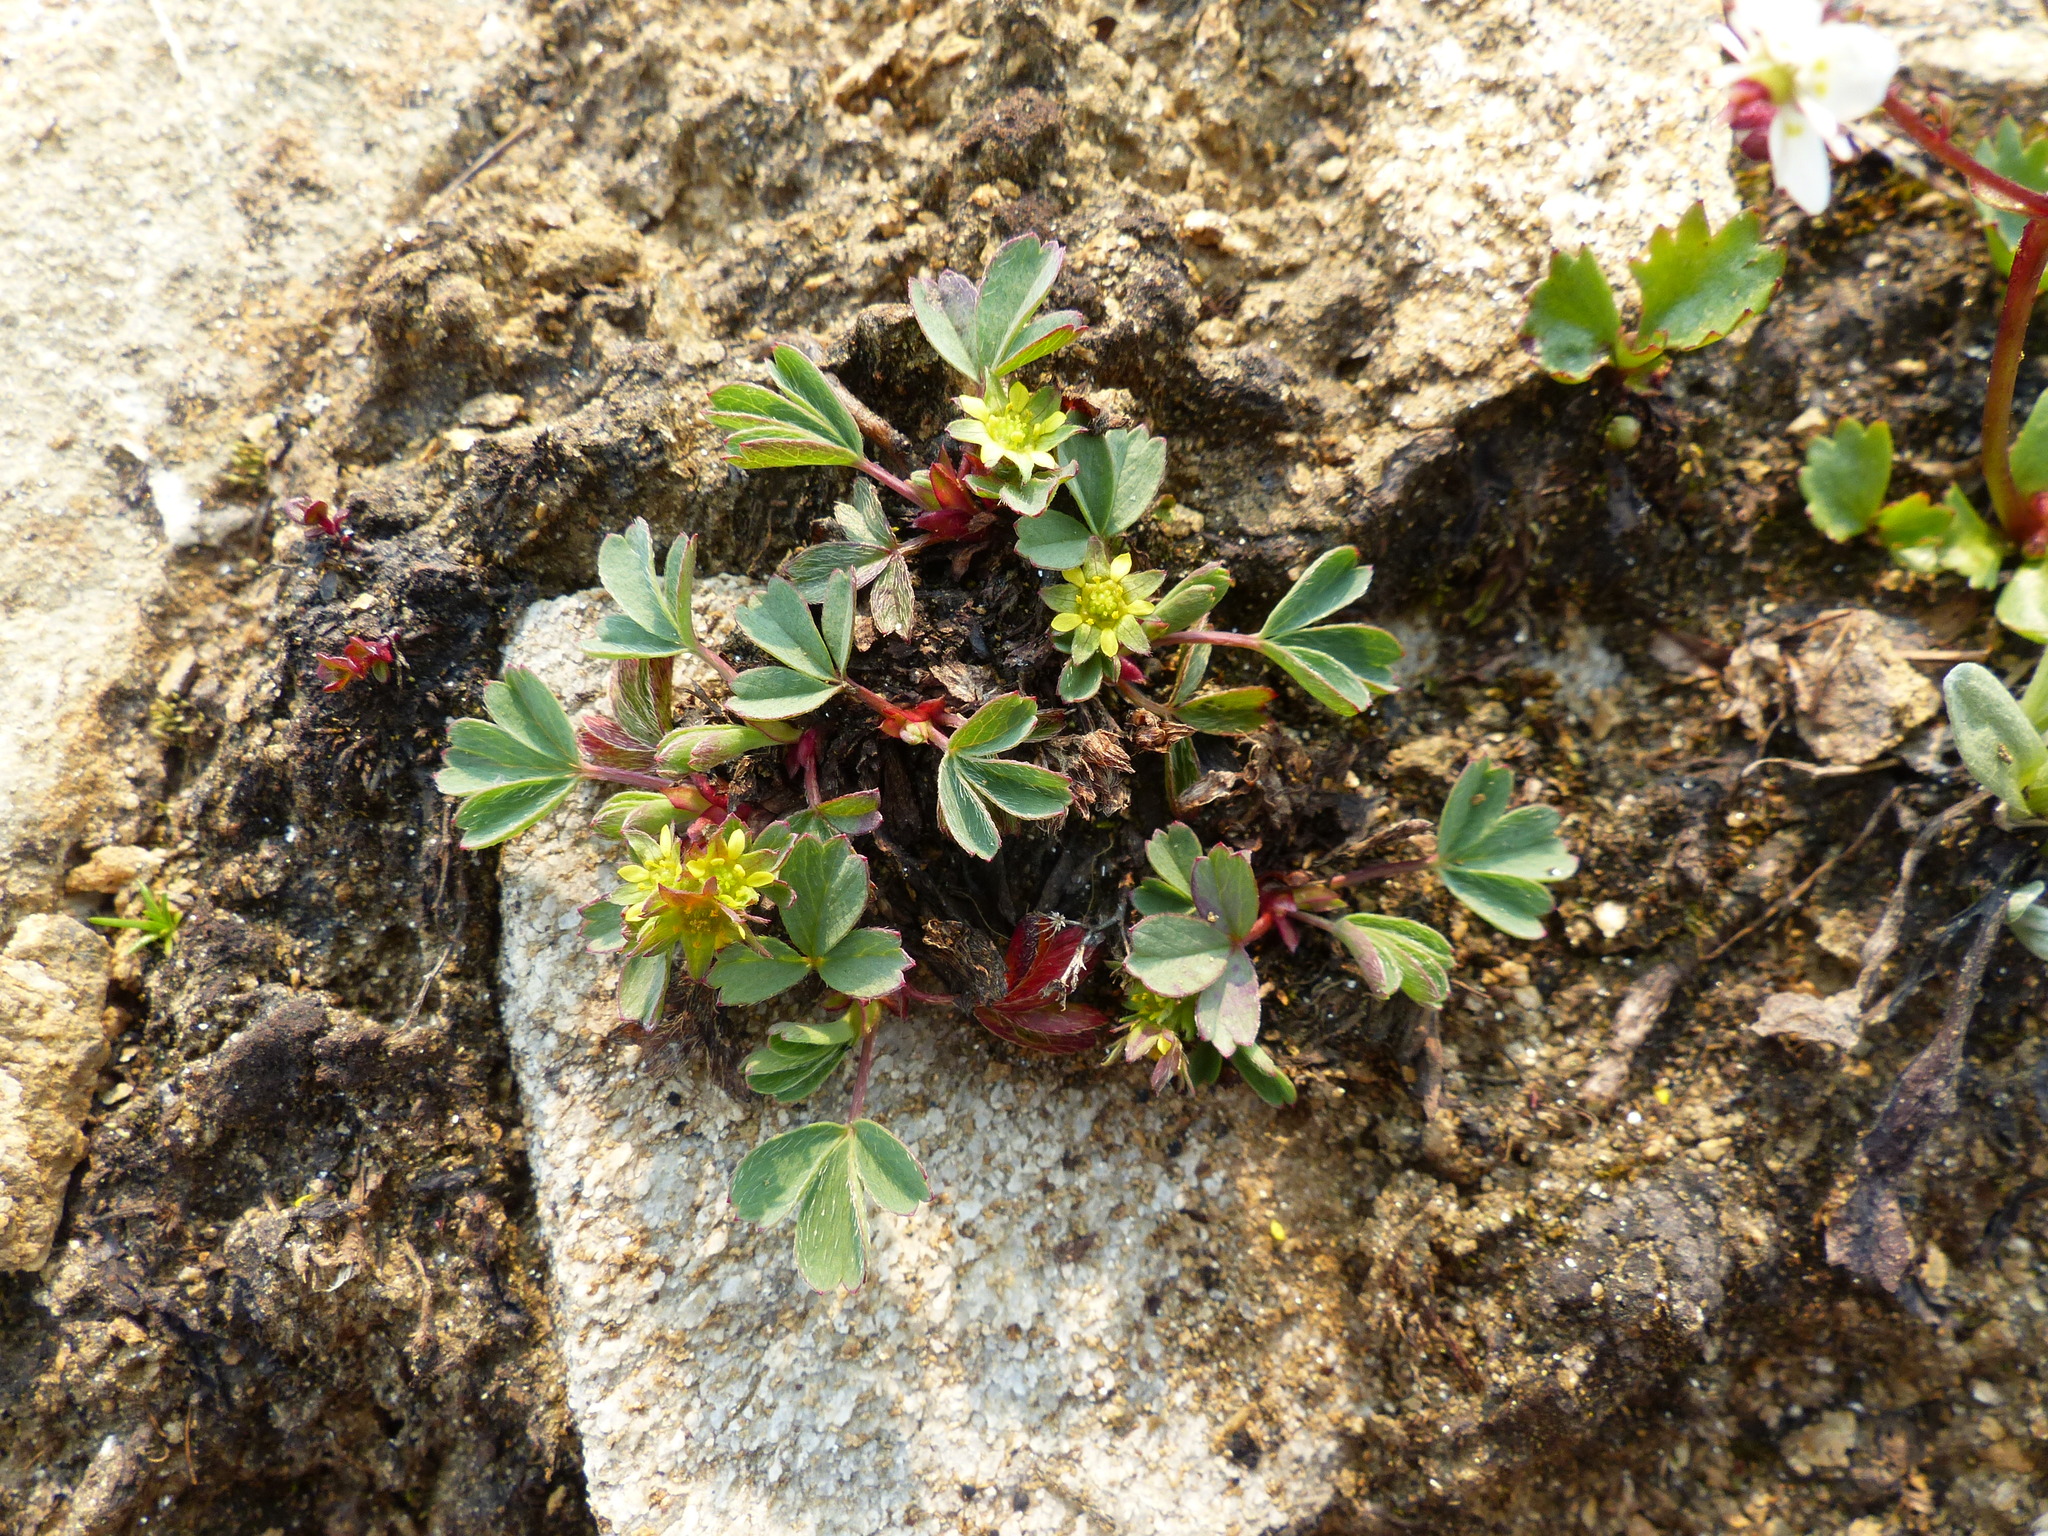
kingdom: Plantae
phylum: Tracheophyta
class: Magnoliopsida
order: Rosales
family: Rosaceae
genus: Sibbaldia
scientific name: Sibbaldia procumbens
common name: Creeping sibbaldia
